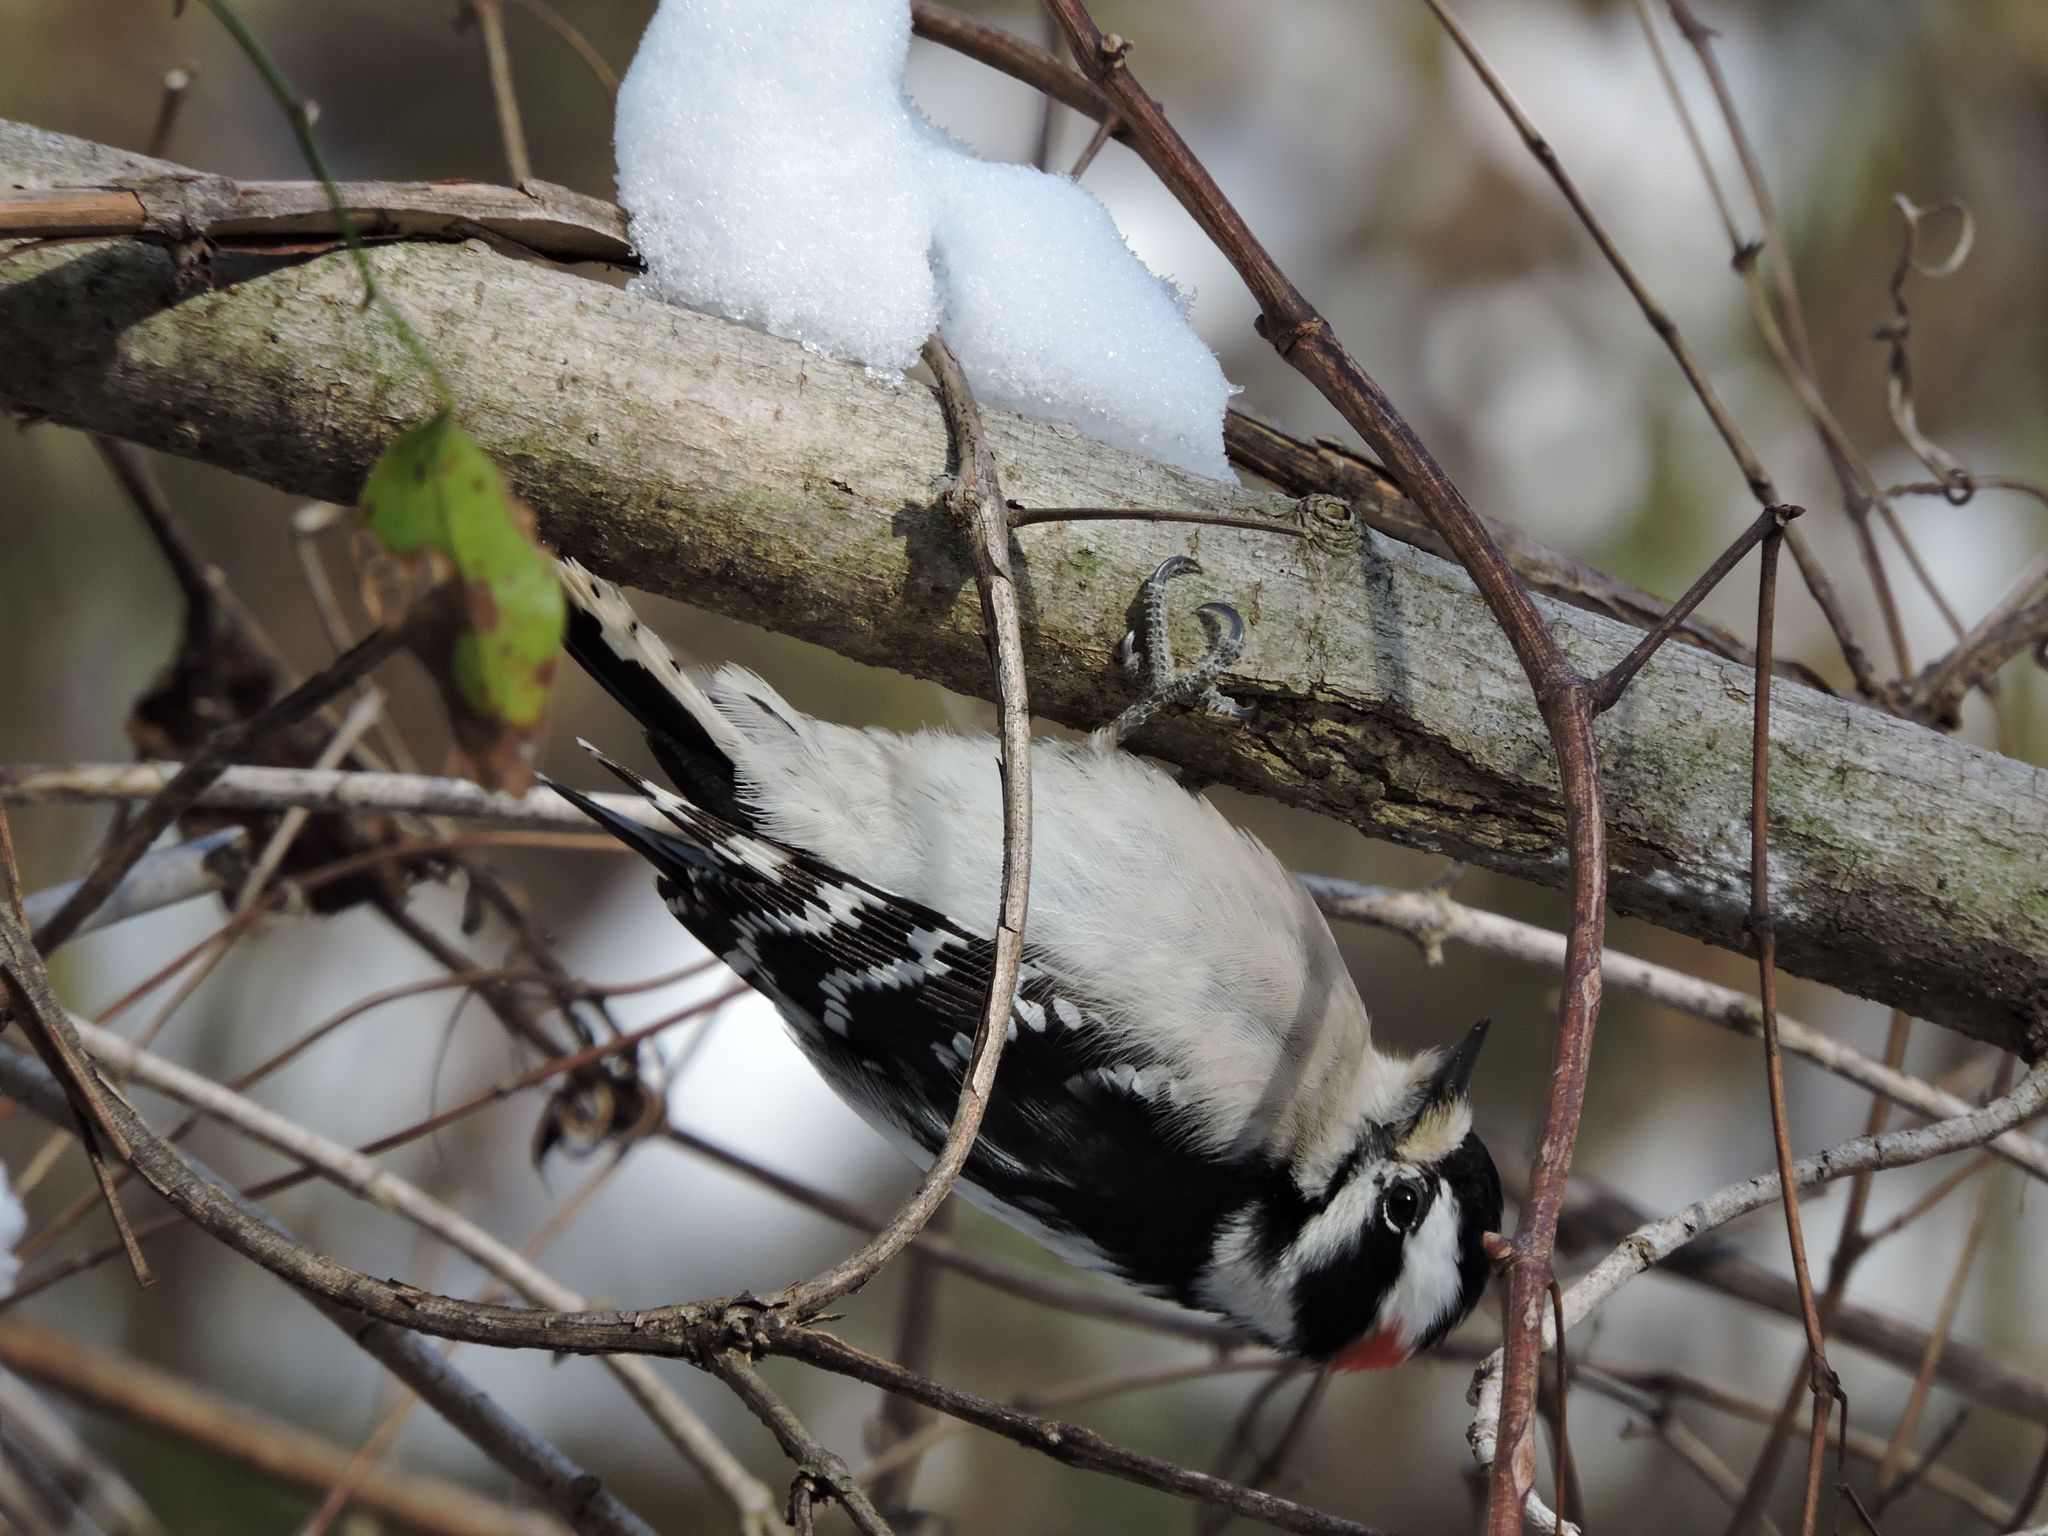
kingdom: Animalia
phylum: Chordata
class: Aves
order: Piciformes
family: Picidae
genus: Dryobates
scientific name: Dryobates pubescens
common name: Downy woodpecker
